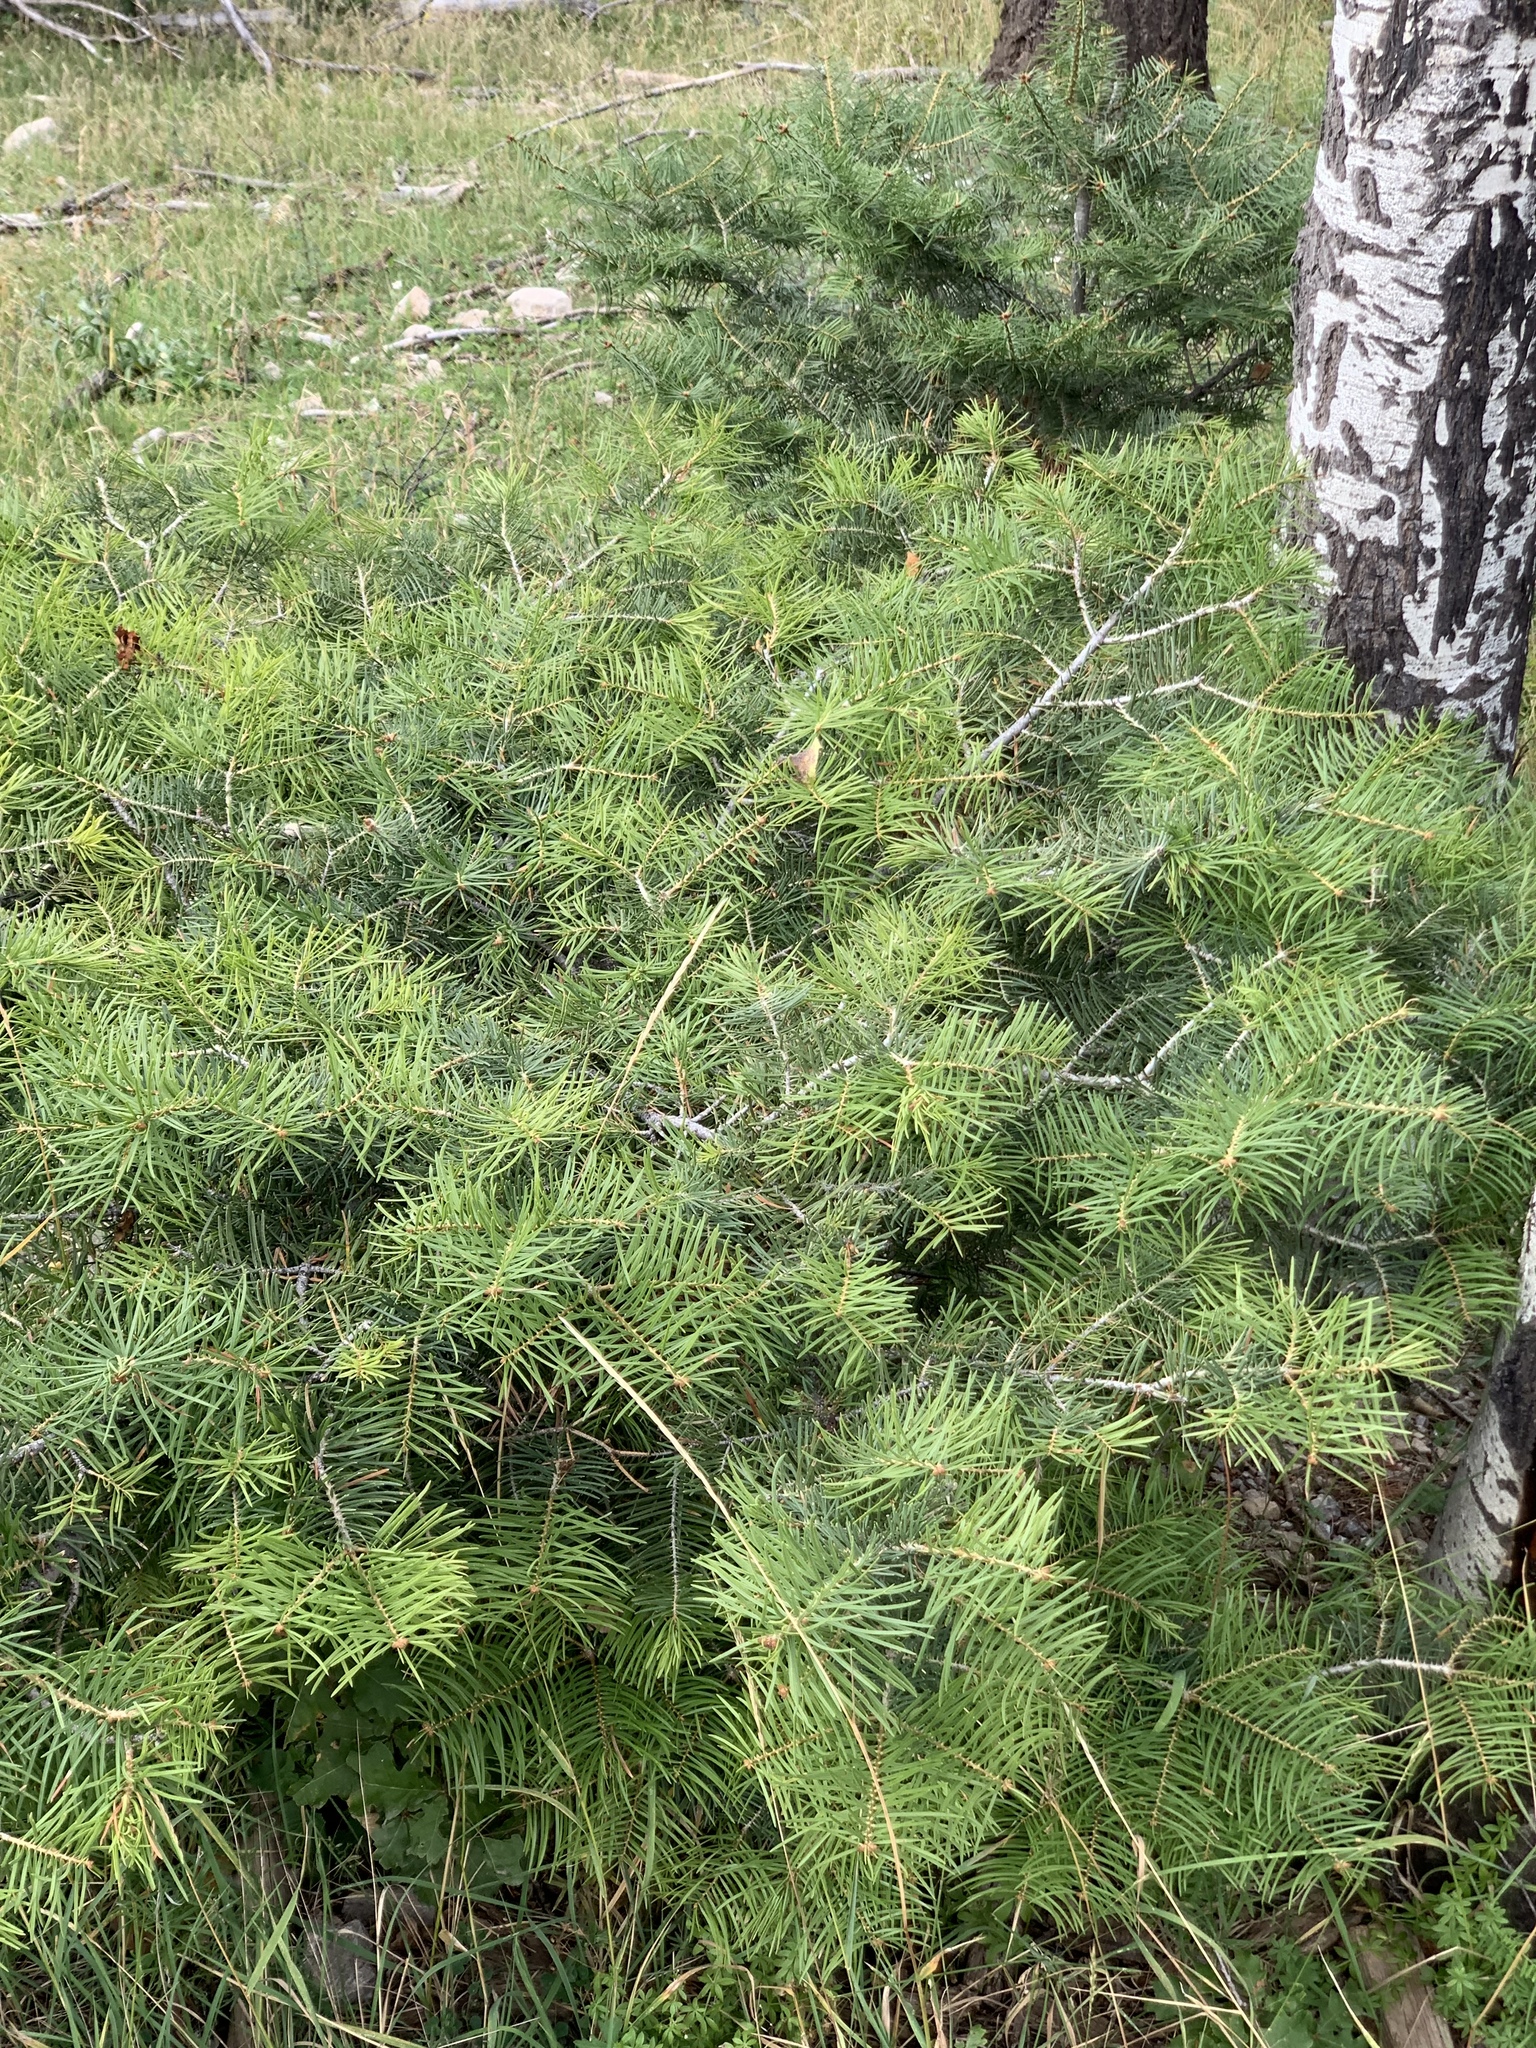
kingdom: Plantae
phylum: Tracheophyta
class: Pinopsida
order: Pinales
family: Pinaceae
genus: Abies
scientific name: Abies concolor
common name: Colorado fir
